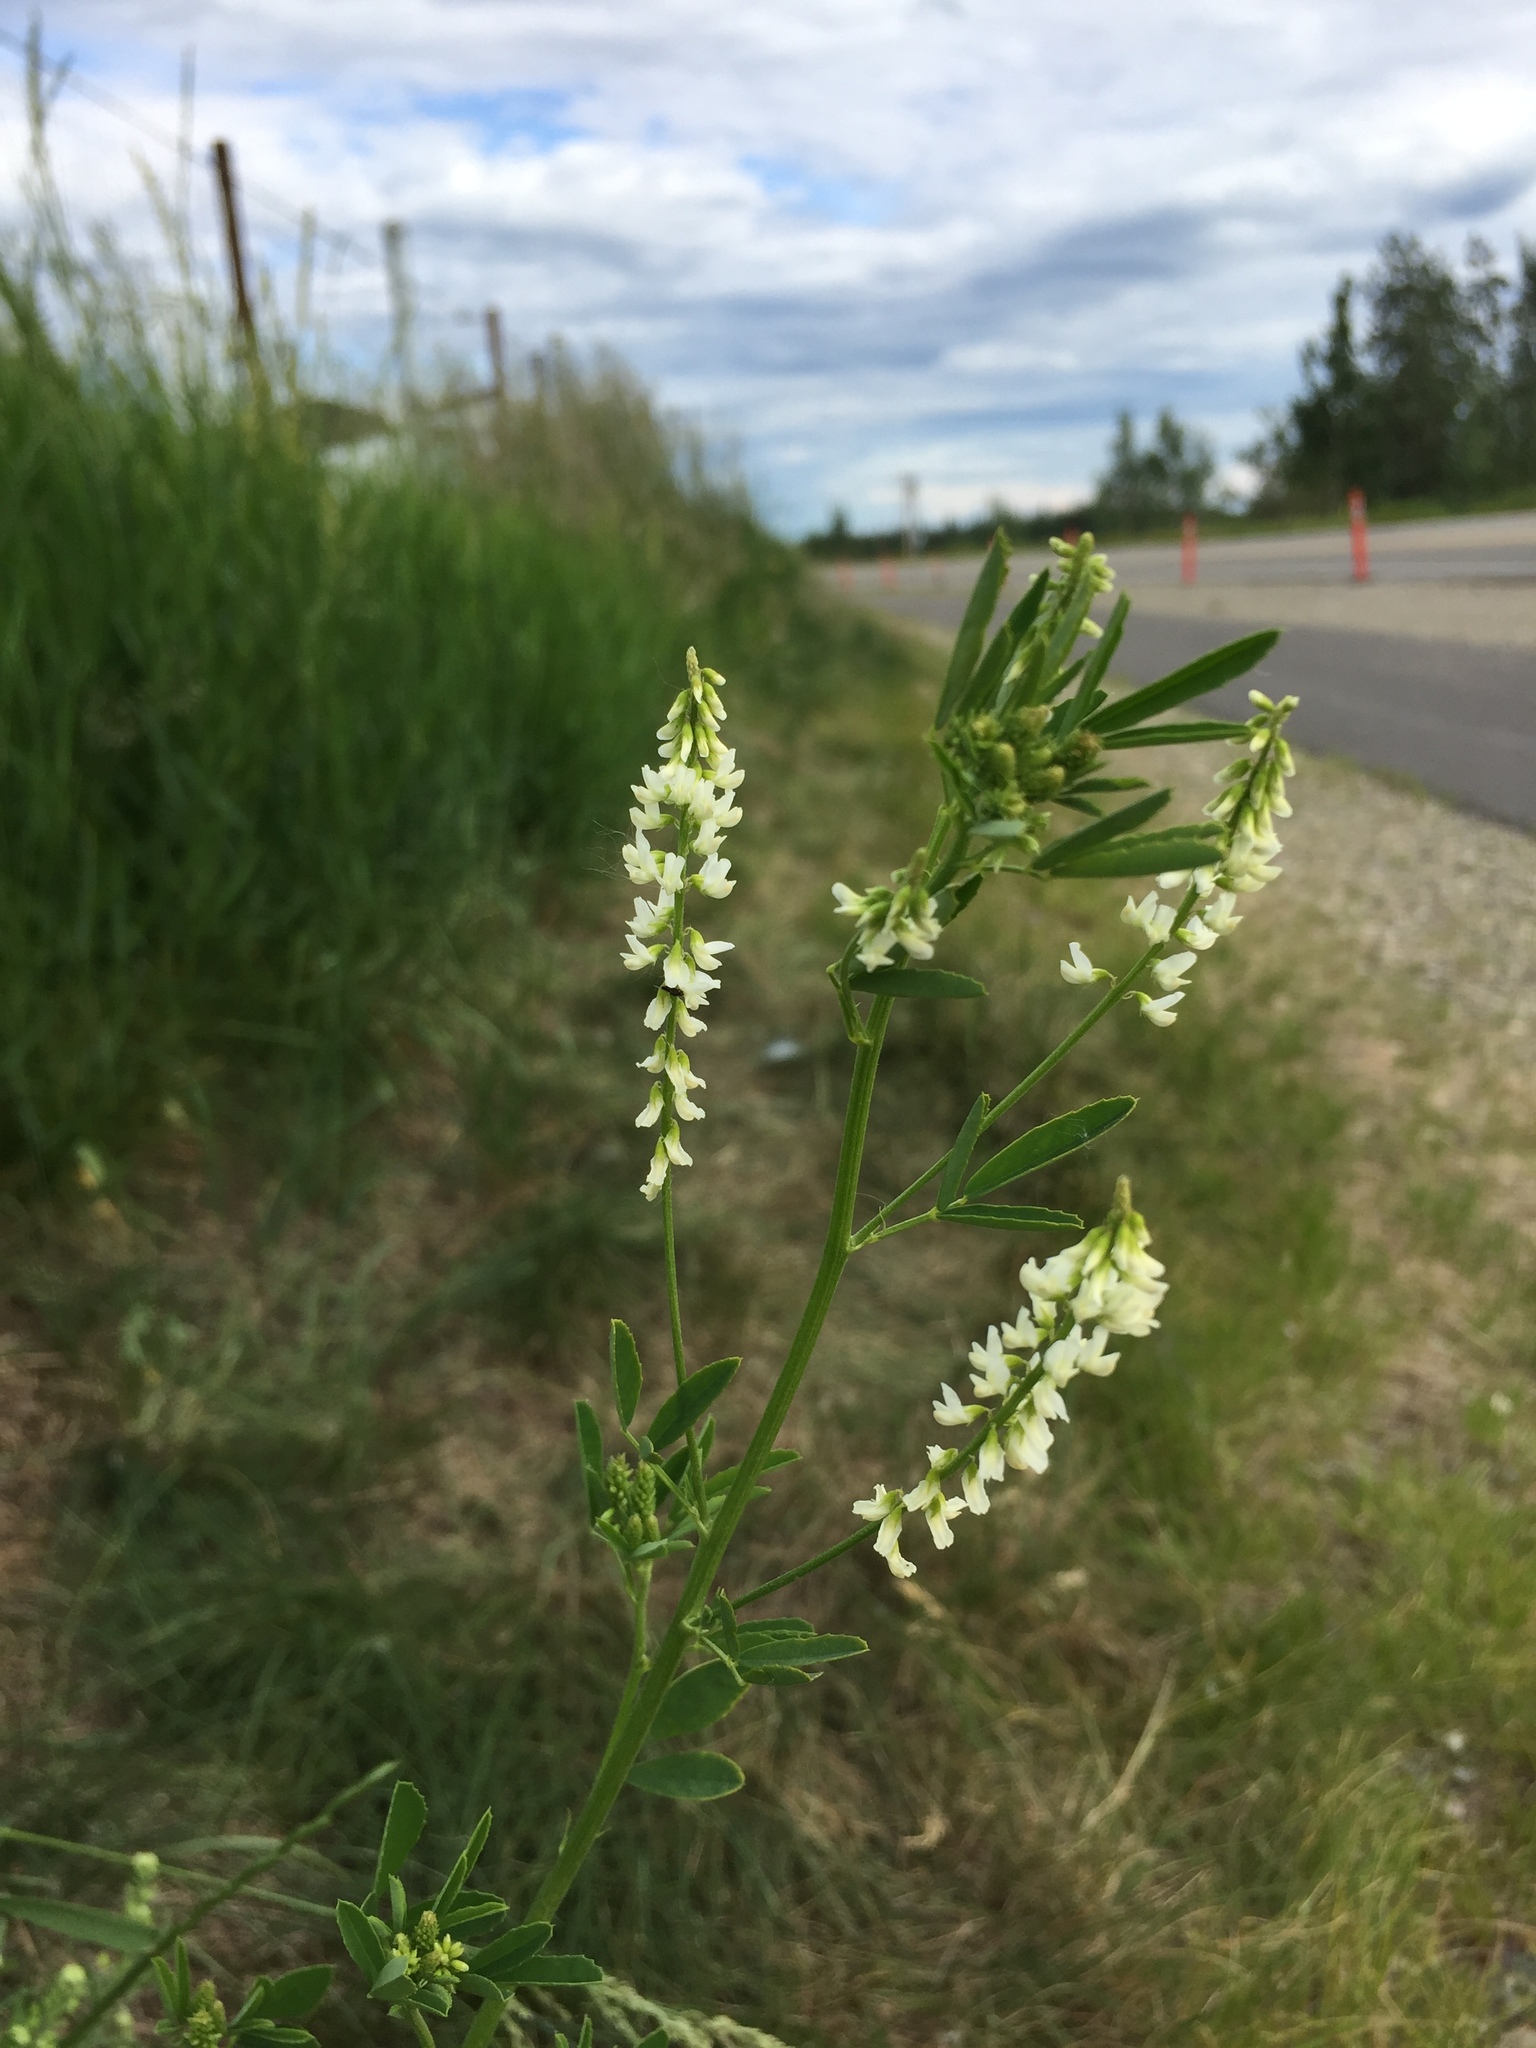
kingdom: Plantae
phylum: Tracheophyta
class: Magnoliopsida
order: Fabales
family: Fabaceae
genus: Melilotus
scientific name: Melilotus albus
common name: White melilot
